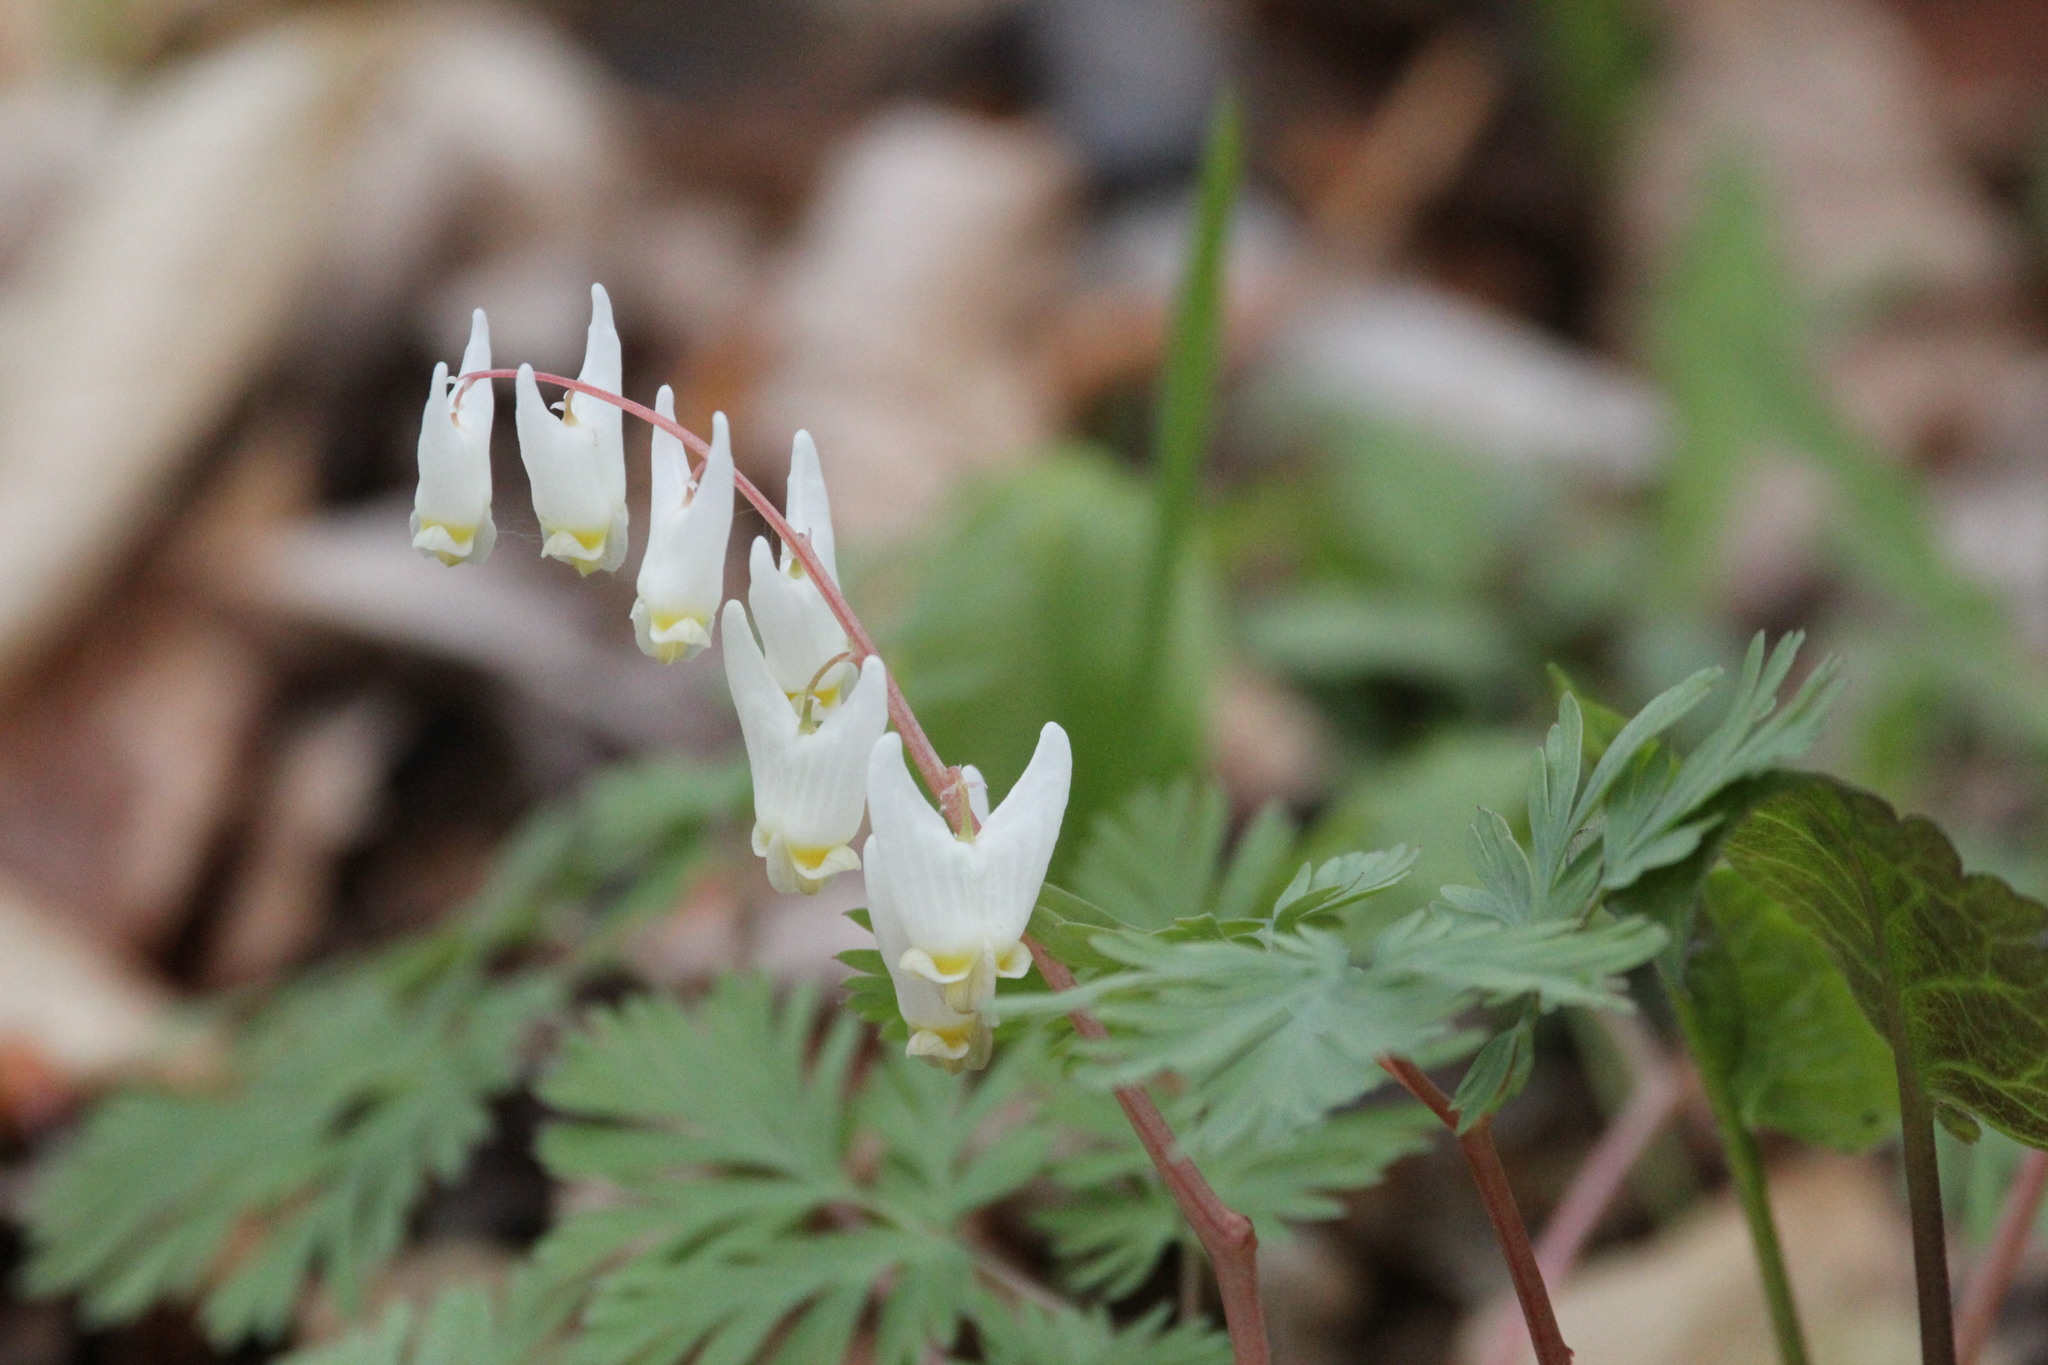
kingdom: Plantae
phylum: Tracheophyta
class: Magnoliopsida
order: Ranunculales
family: Papaveraceae
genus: Dicentra
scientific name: Dicentra cucullaria
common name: Dutchman's breeches
